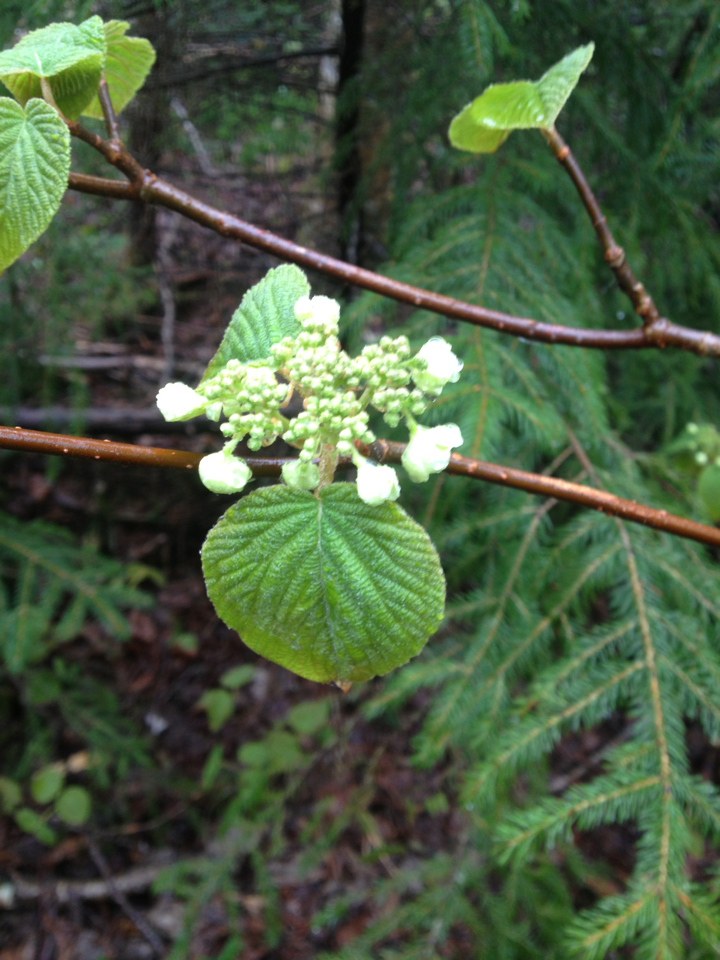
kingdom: Plantae
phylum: Tracheophyta
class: Magnoliopsida
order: Dipsacales
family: Viburnaceae
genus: Viburnum
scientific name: Viburnum lantanoides
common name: Hobblebush
